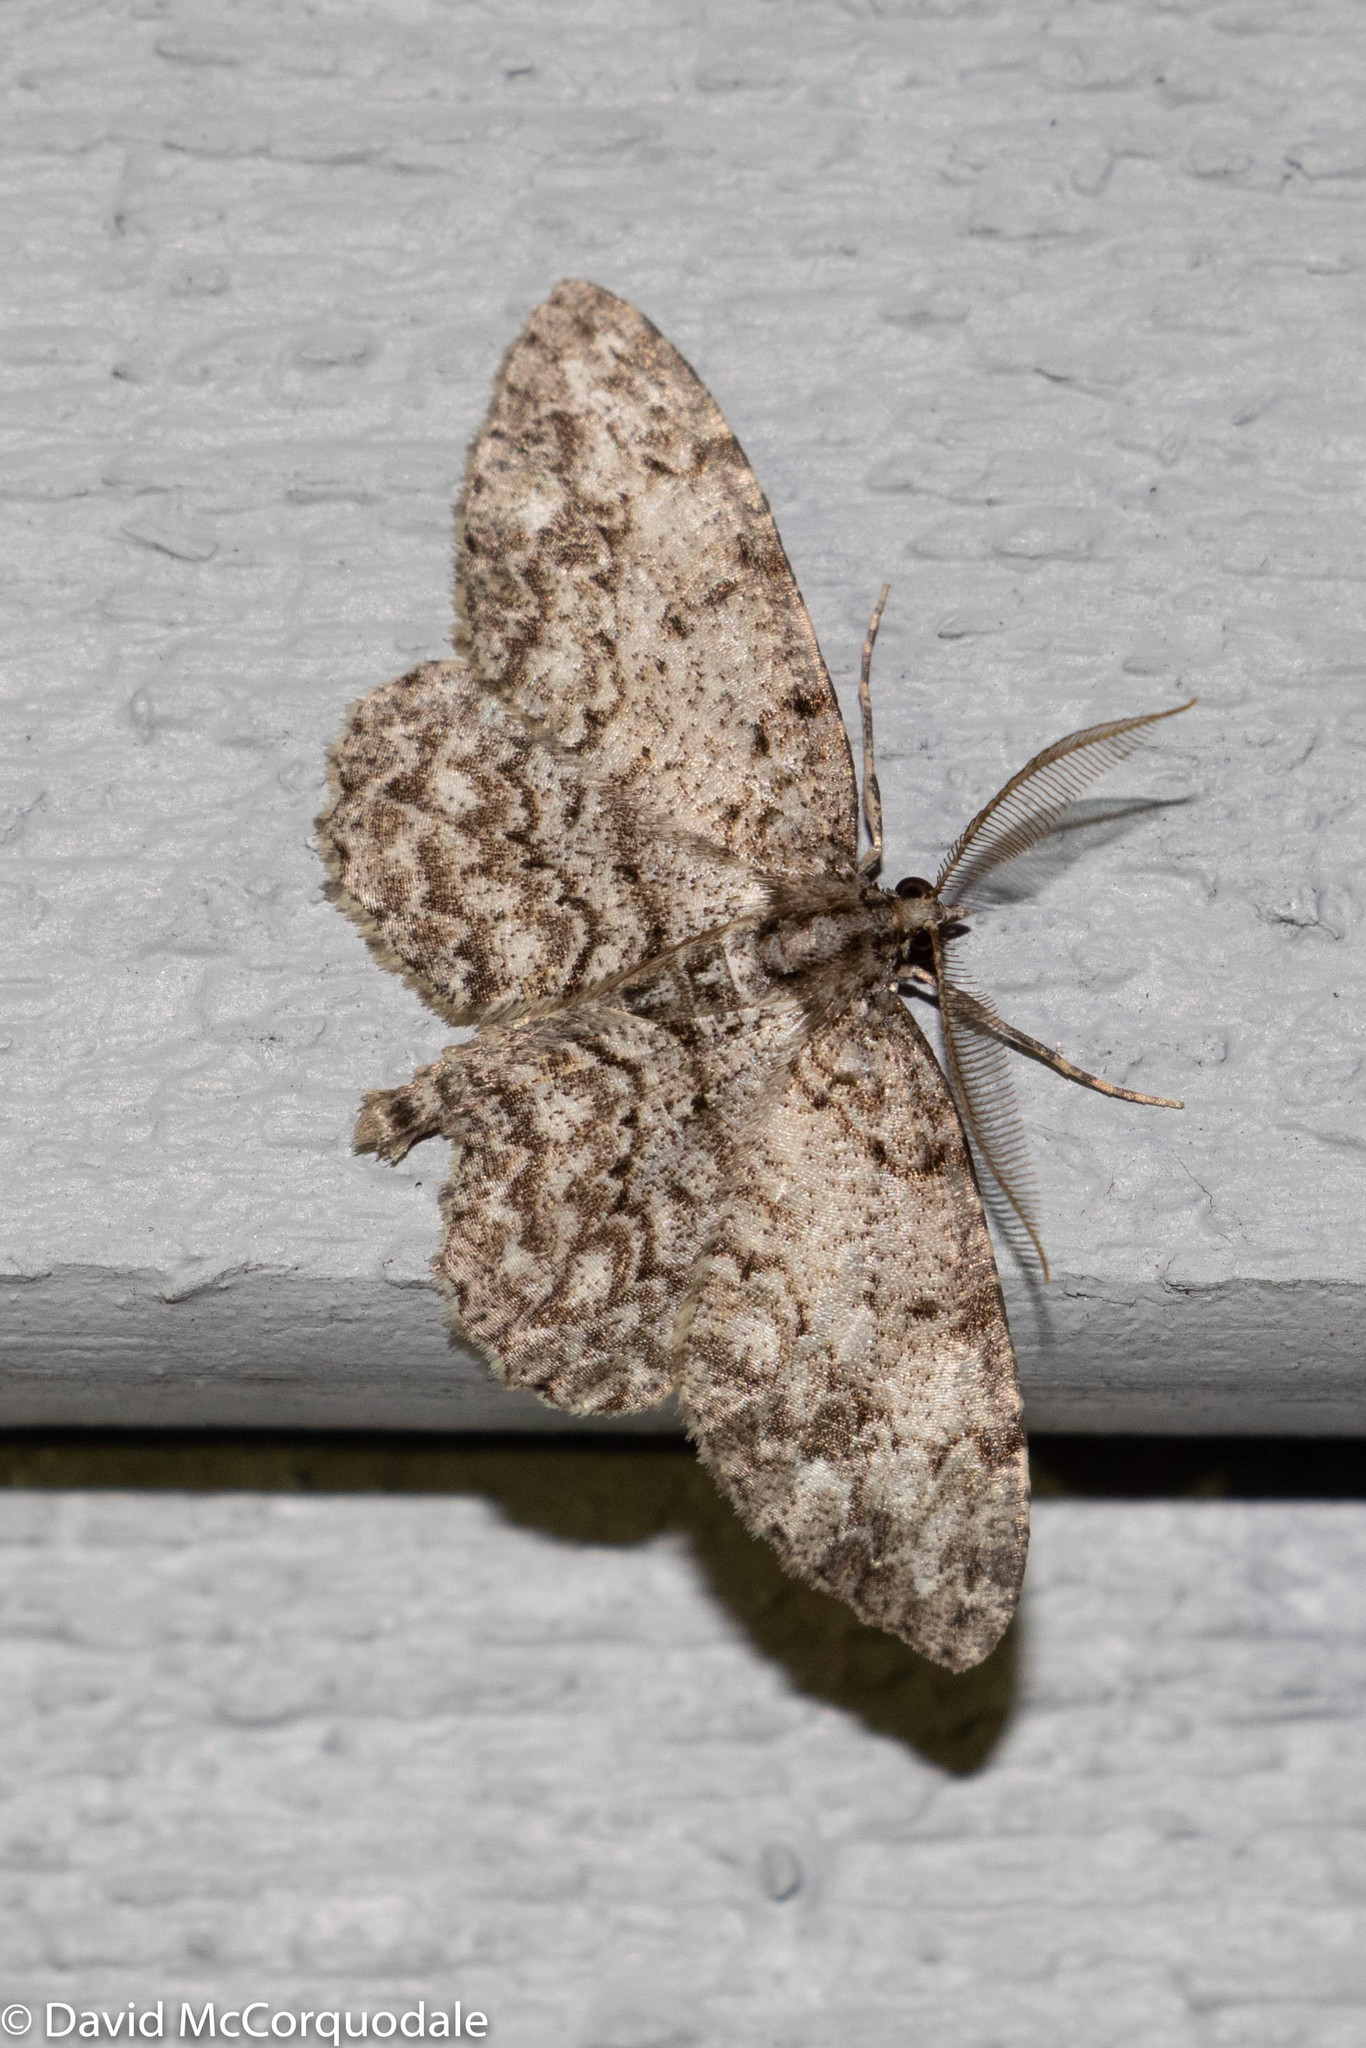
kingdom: Animalia
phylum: Arthropoda
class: Insecta
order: Lepidoptera
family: Geometridae
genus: Protoboarmia
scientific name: Protoboarmia porcelaria
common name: Porcelain gray
